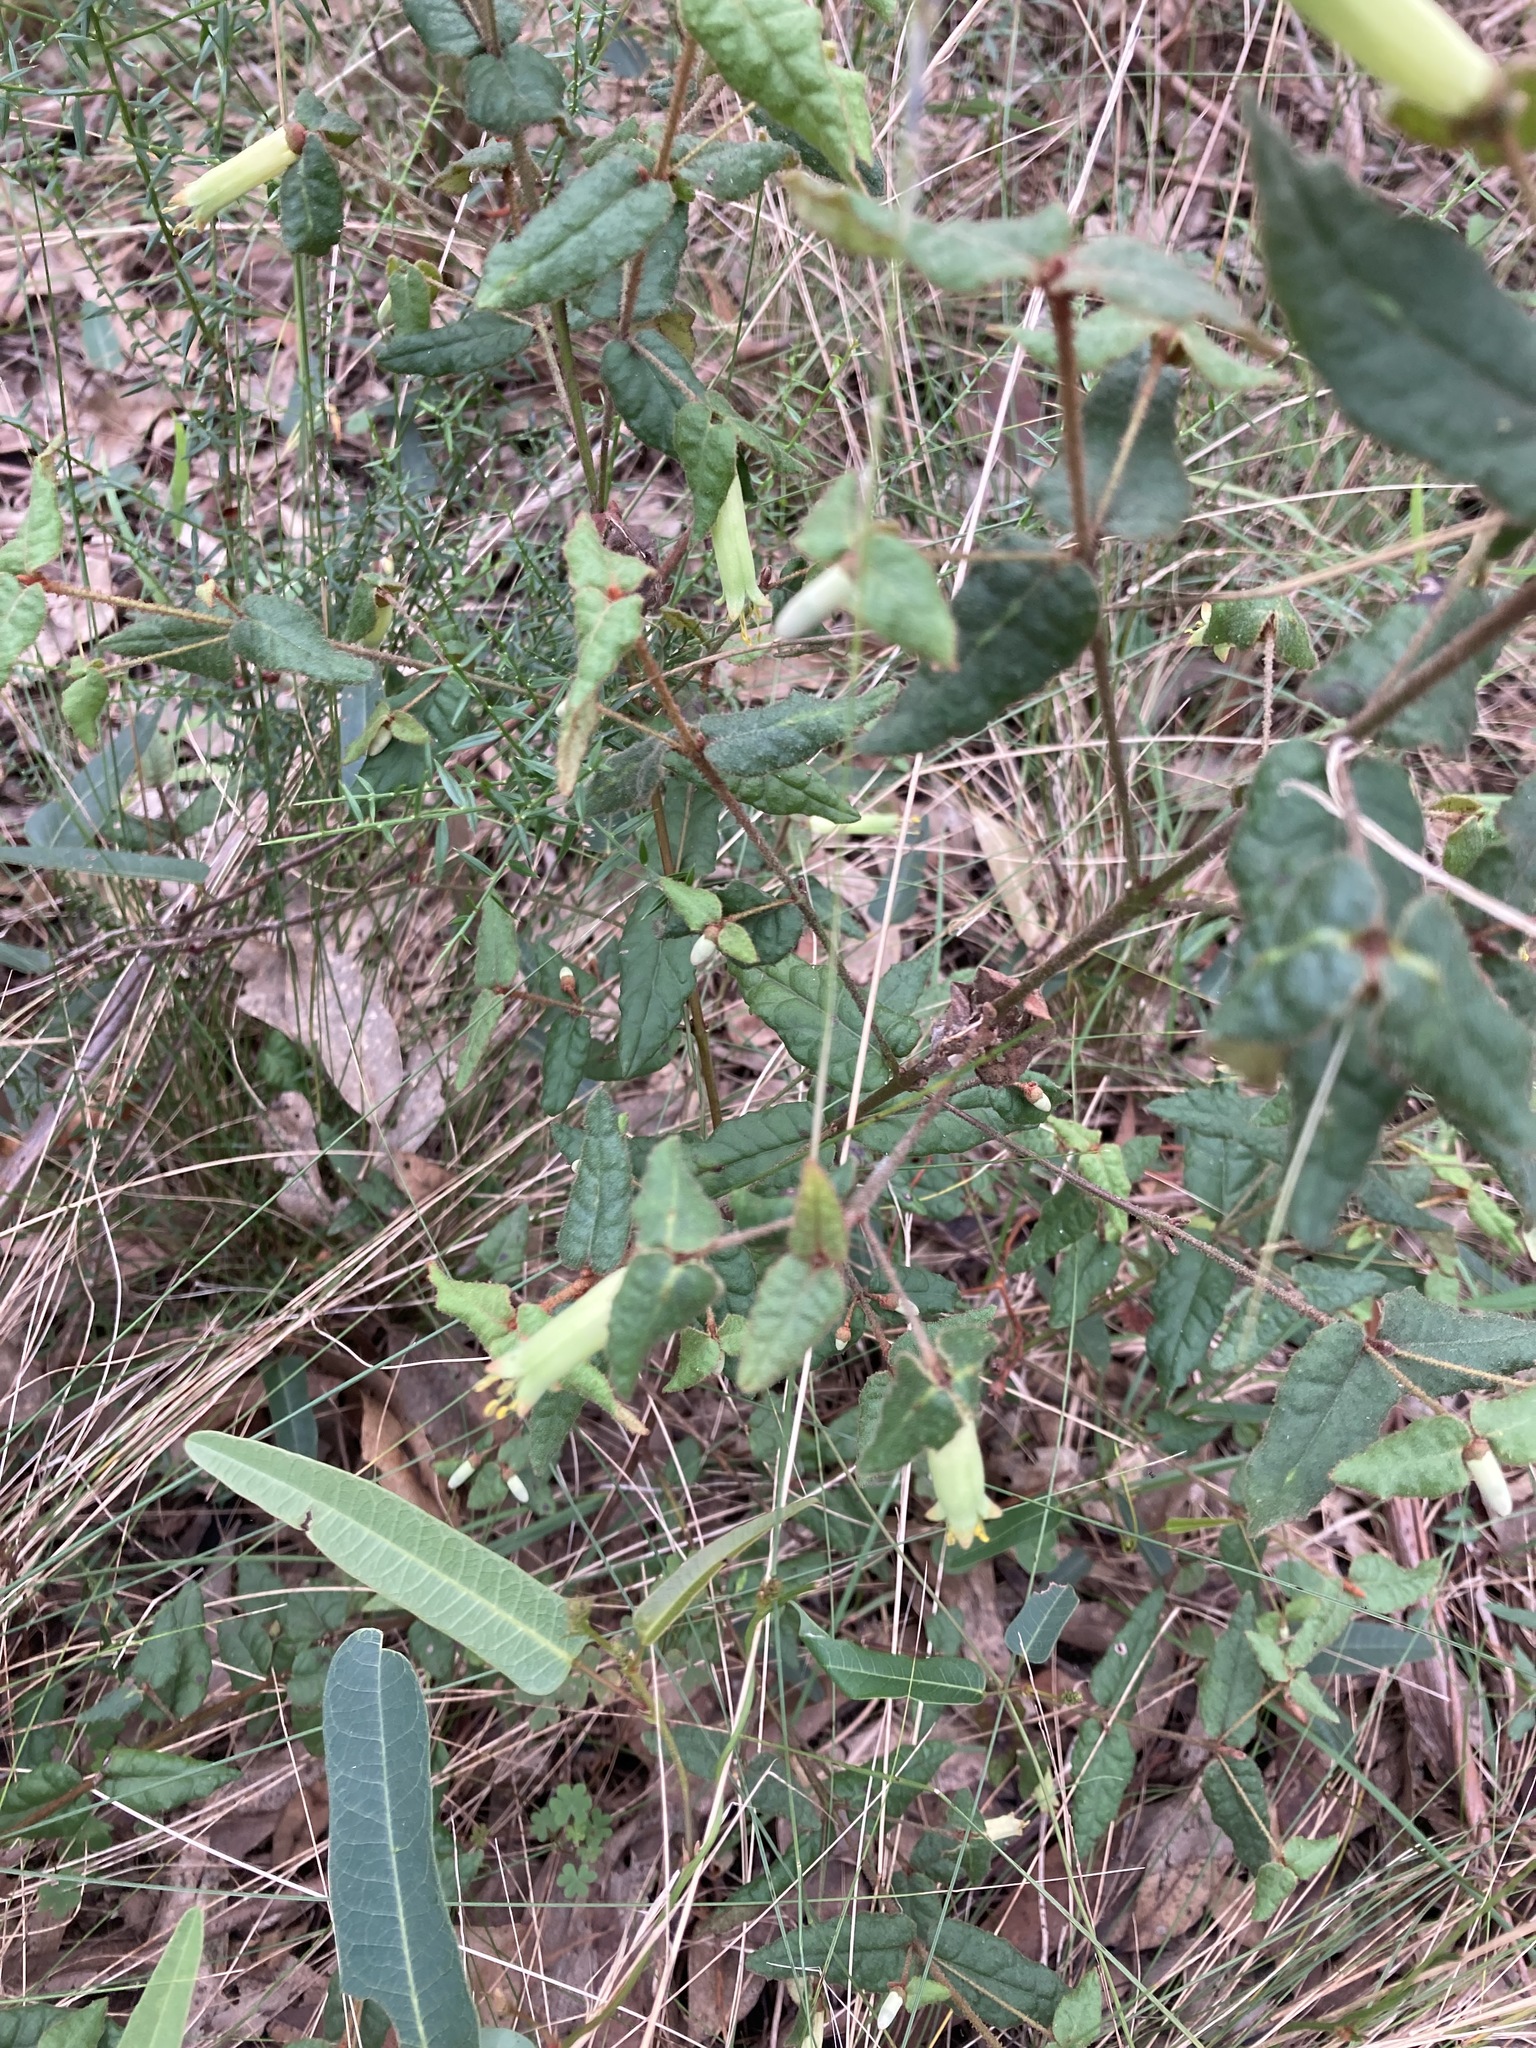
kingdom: Plantae
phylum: Tracheophyta
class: Magnoliopsida
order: Sapindales
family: Rutaceae
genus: Correa
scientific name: Correa reflexa
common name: Common correa
